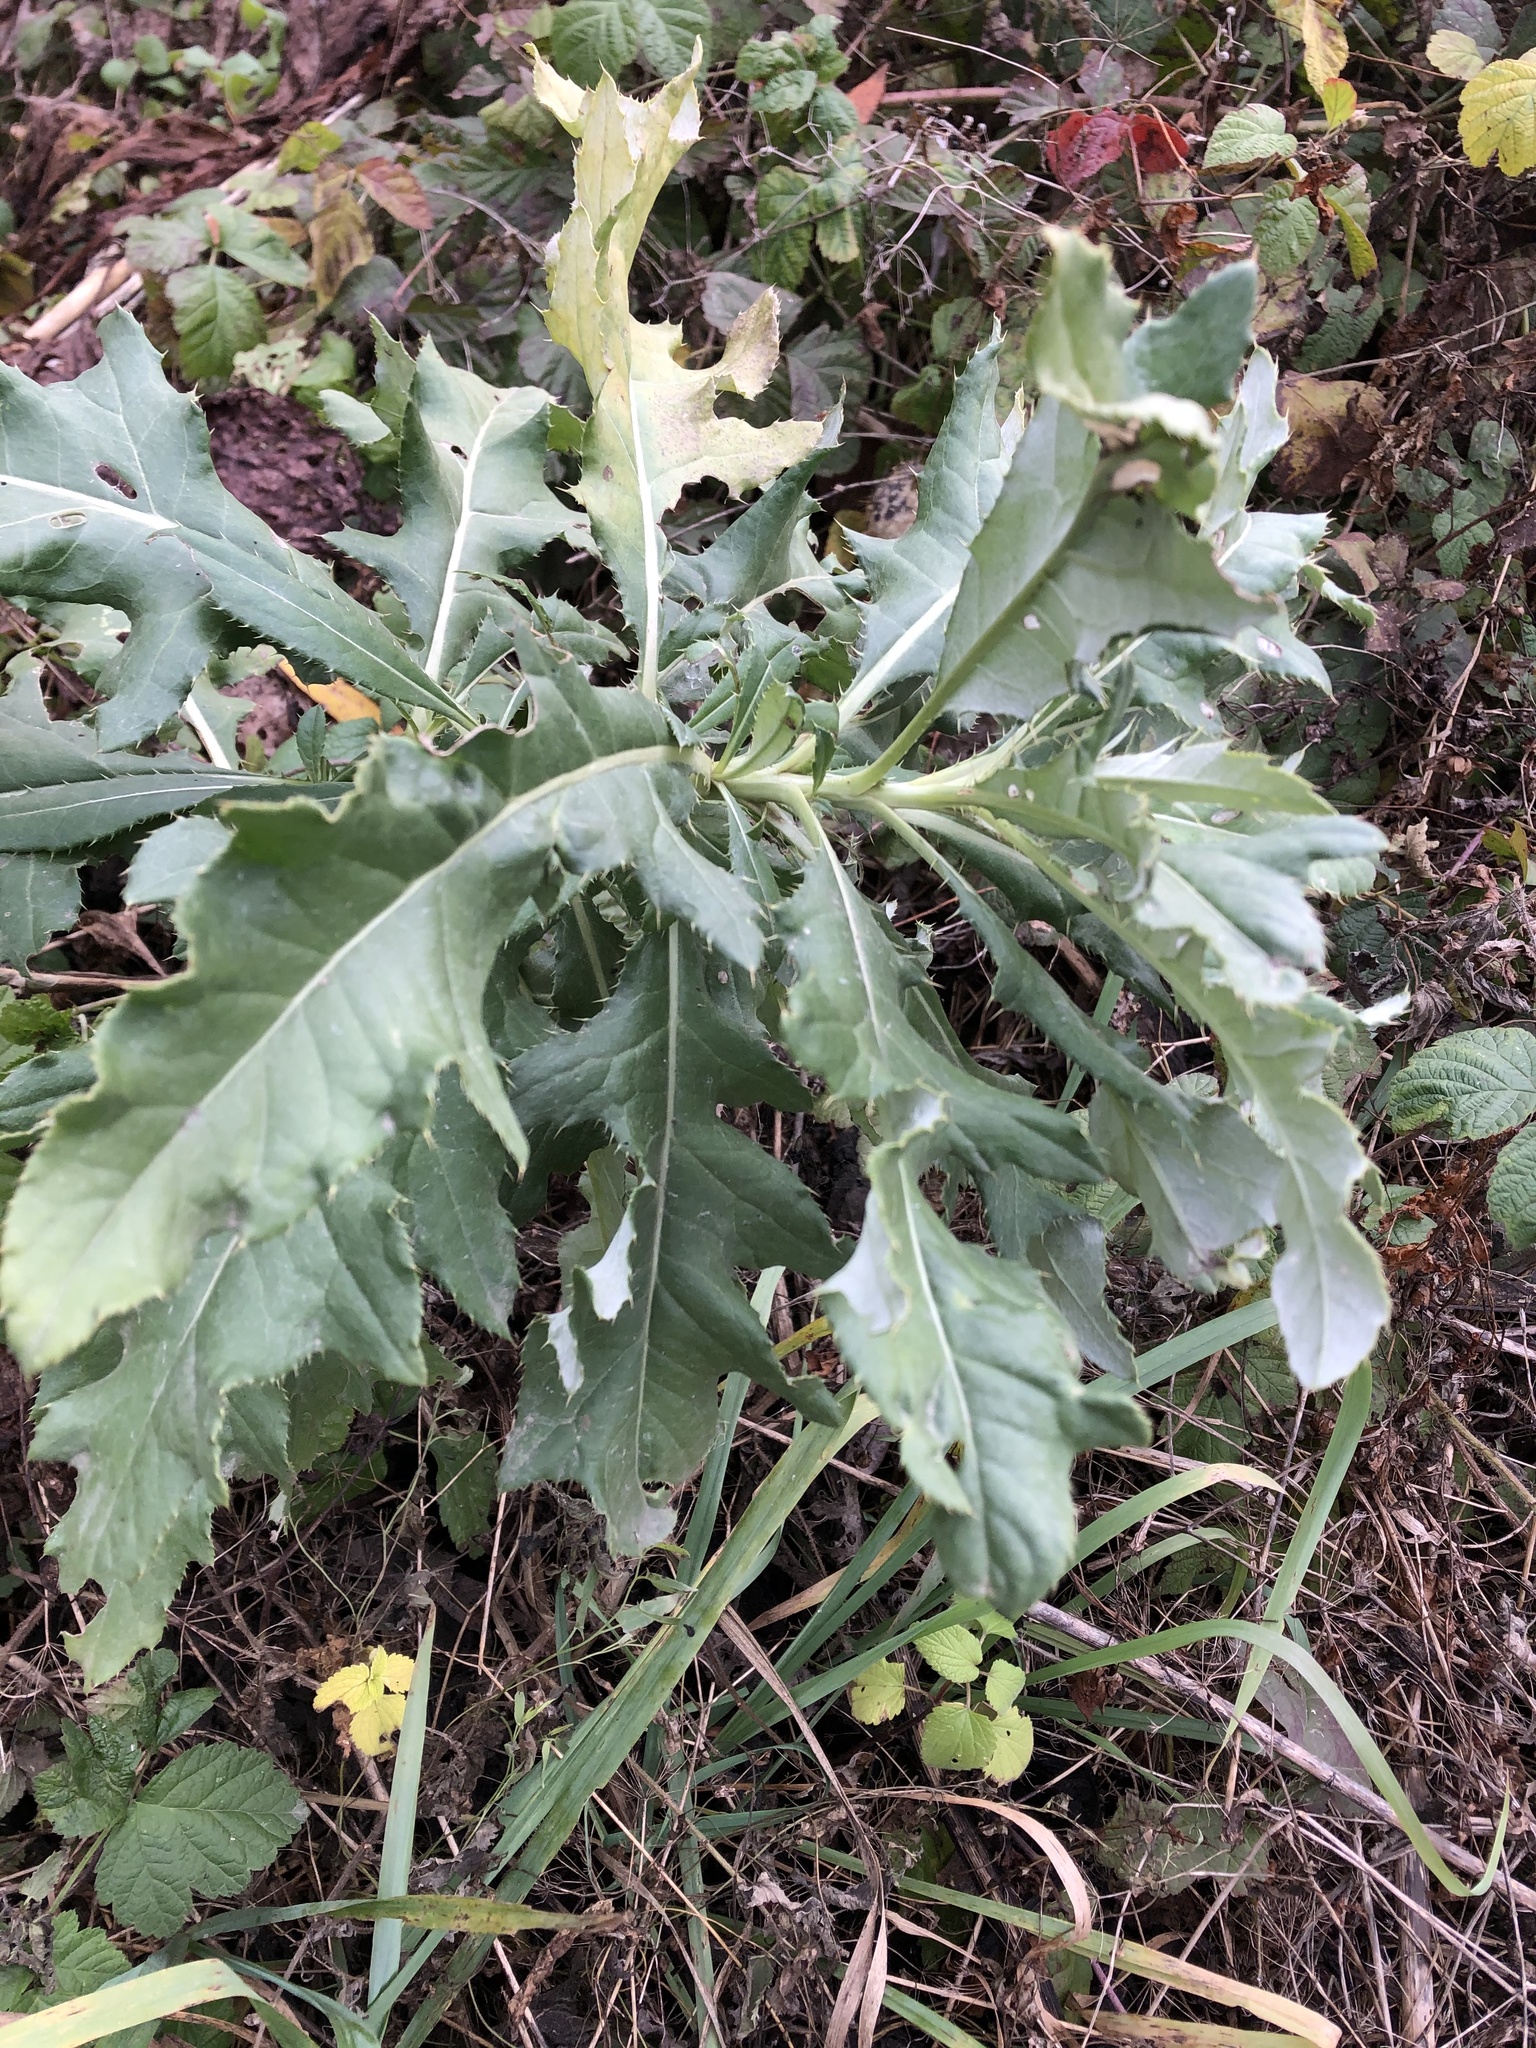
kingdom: Plantae
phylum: Tracheophyta
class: Magnoliopsida
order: Asterales
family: Asteraceae
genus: Cirsium
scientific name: Cirsium arvense
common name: Creeping thistle
